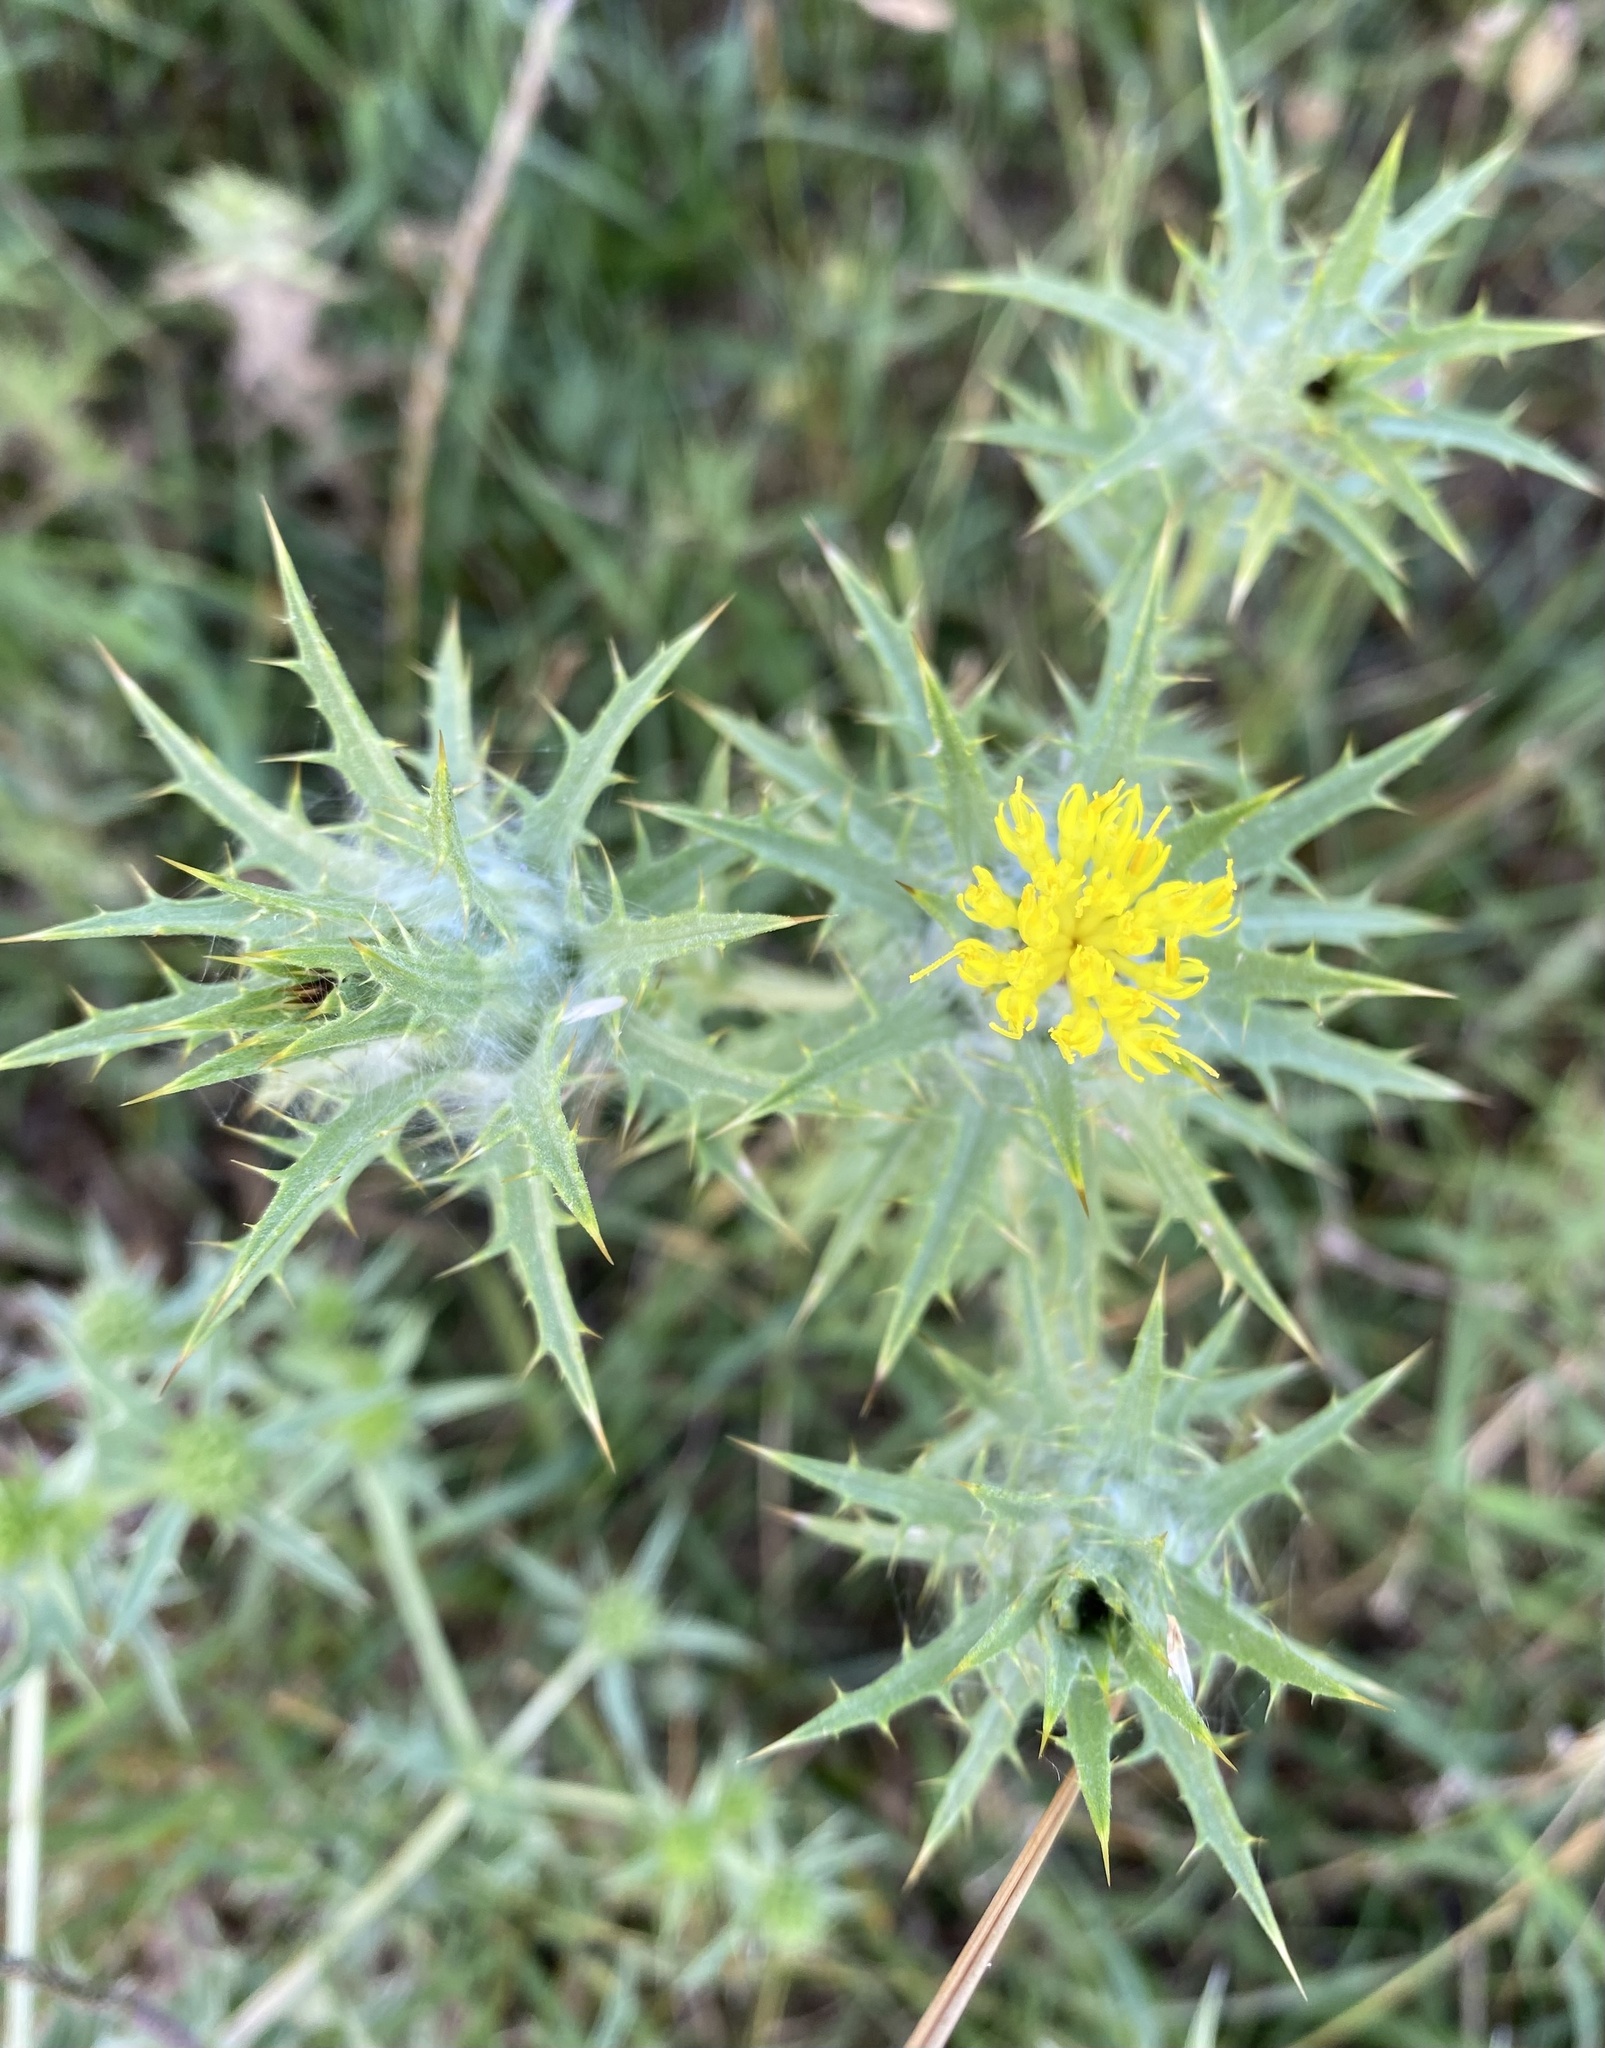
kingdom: Plantae
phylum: Tracheophyta
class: Magnoliopsida
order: Asterales
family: Asteraceae
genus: Carthamus
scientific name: Carthamus lanatus
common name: Downy safflower
